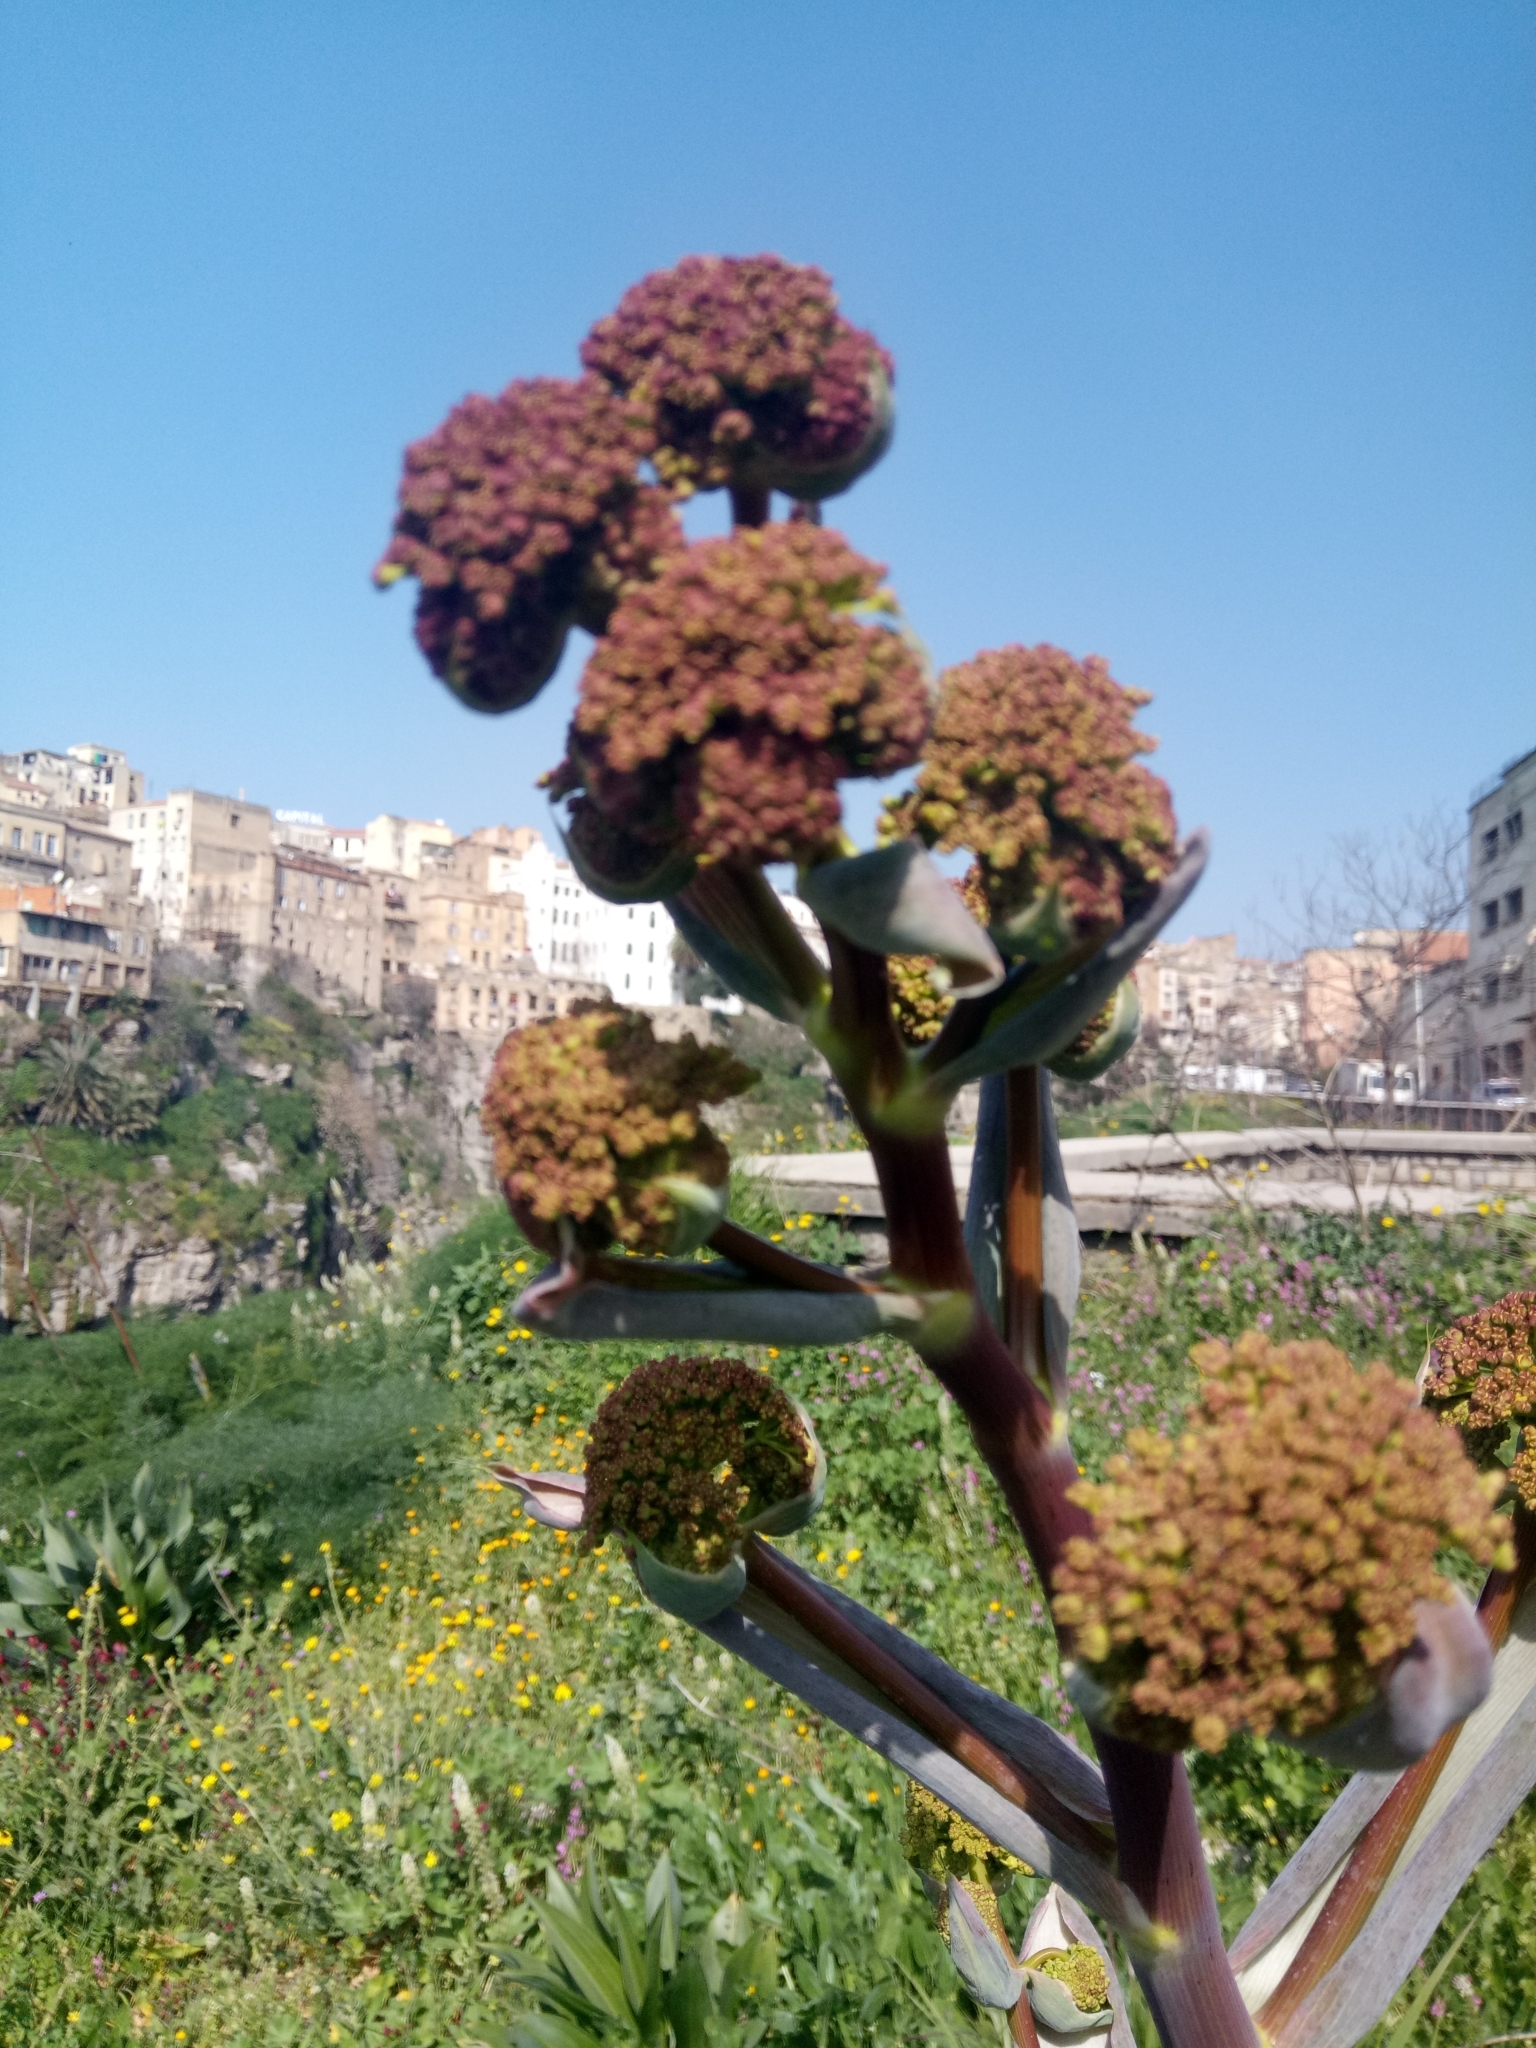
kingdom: Plantae
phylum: Tracheophyta
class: Magnoliopsida
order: Apiales
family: Apiaceae
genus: Ferula
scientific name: Ferula communis
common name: Giant fennel
